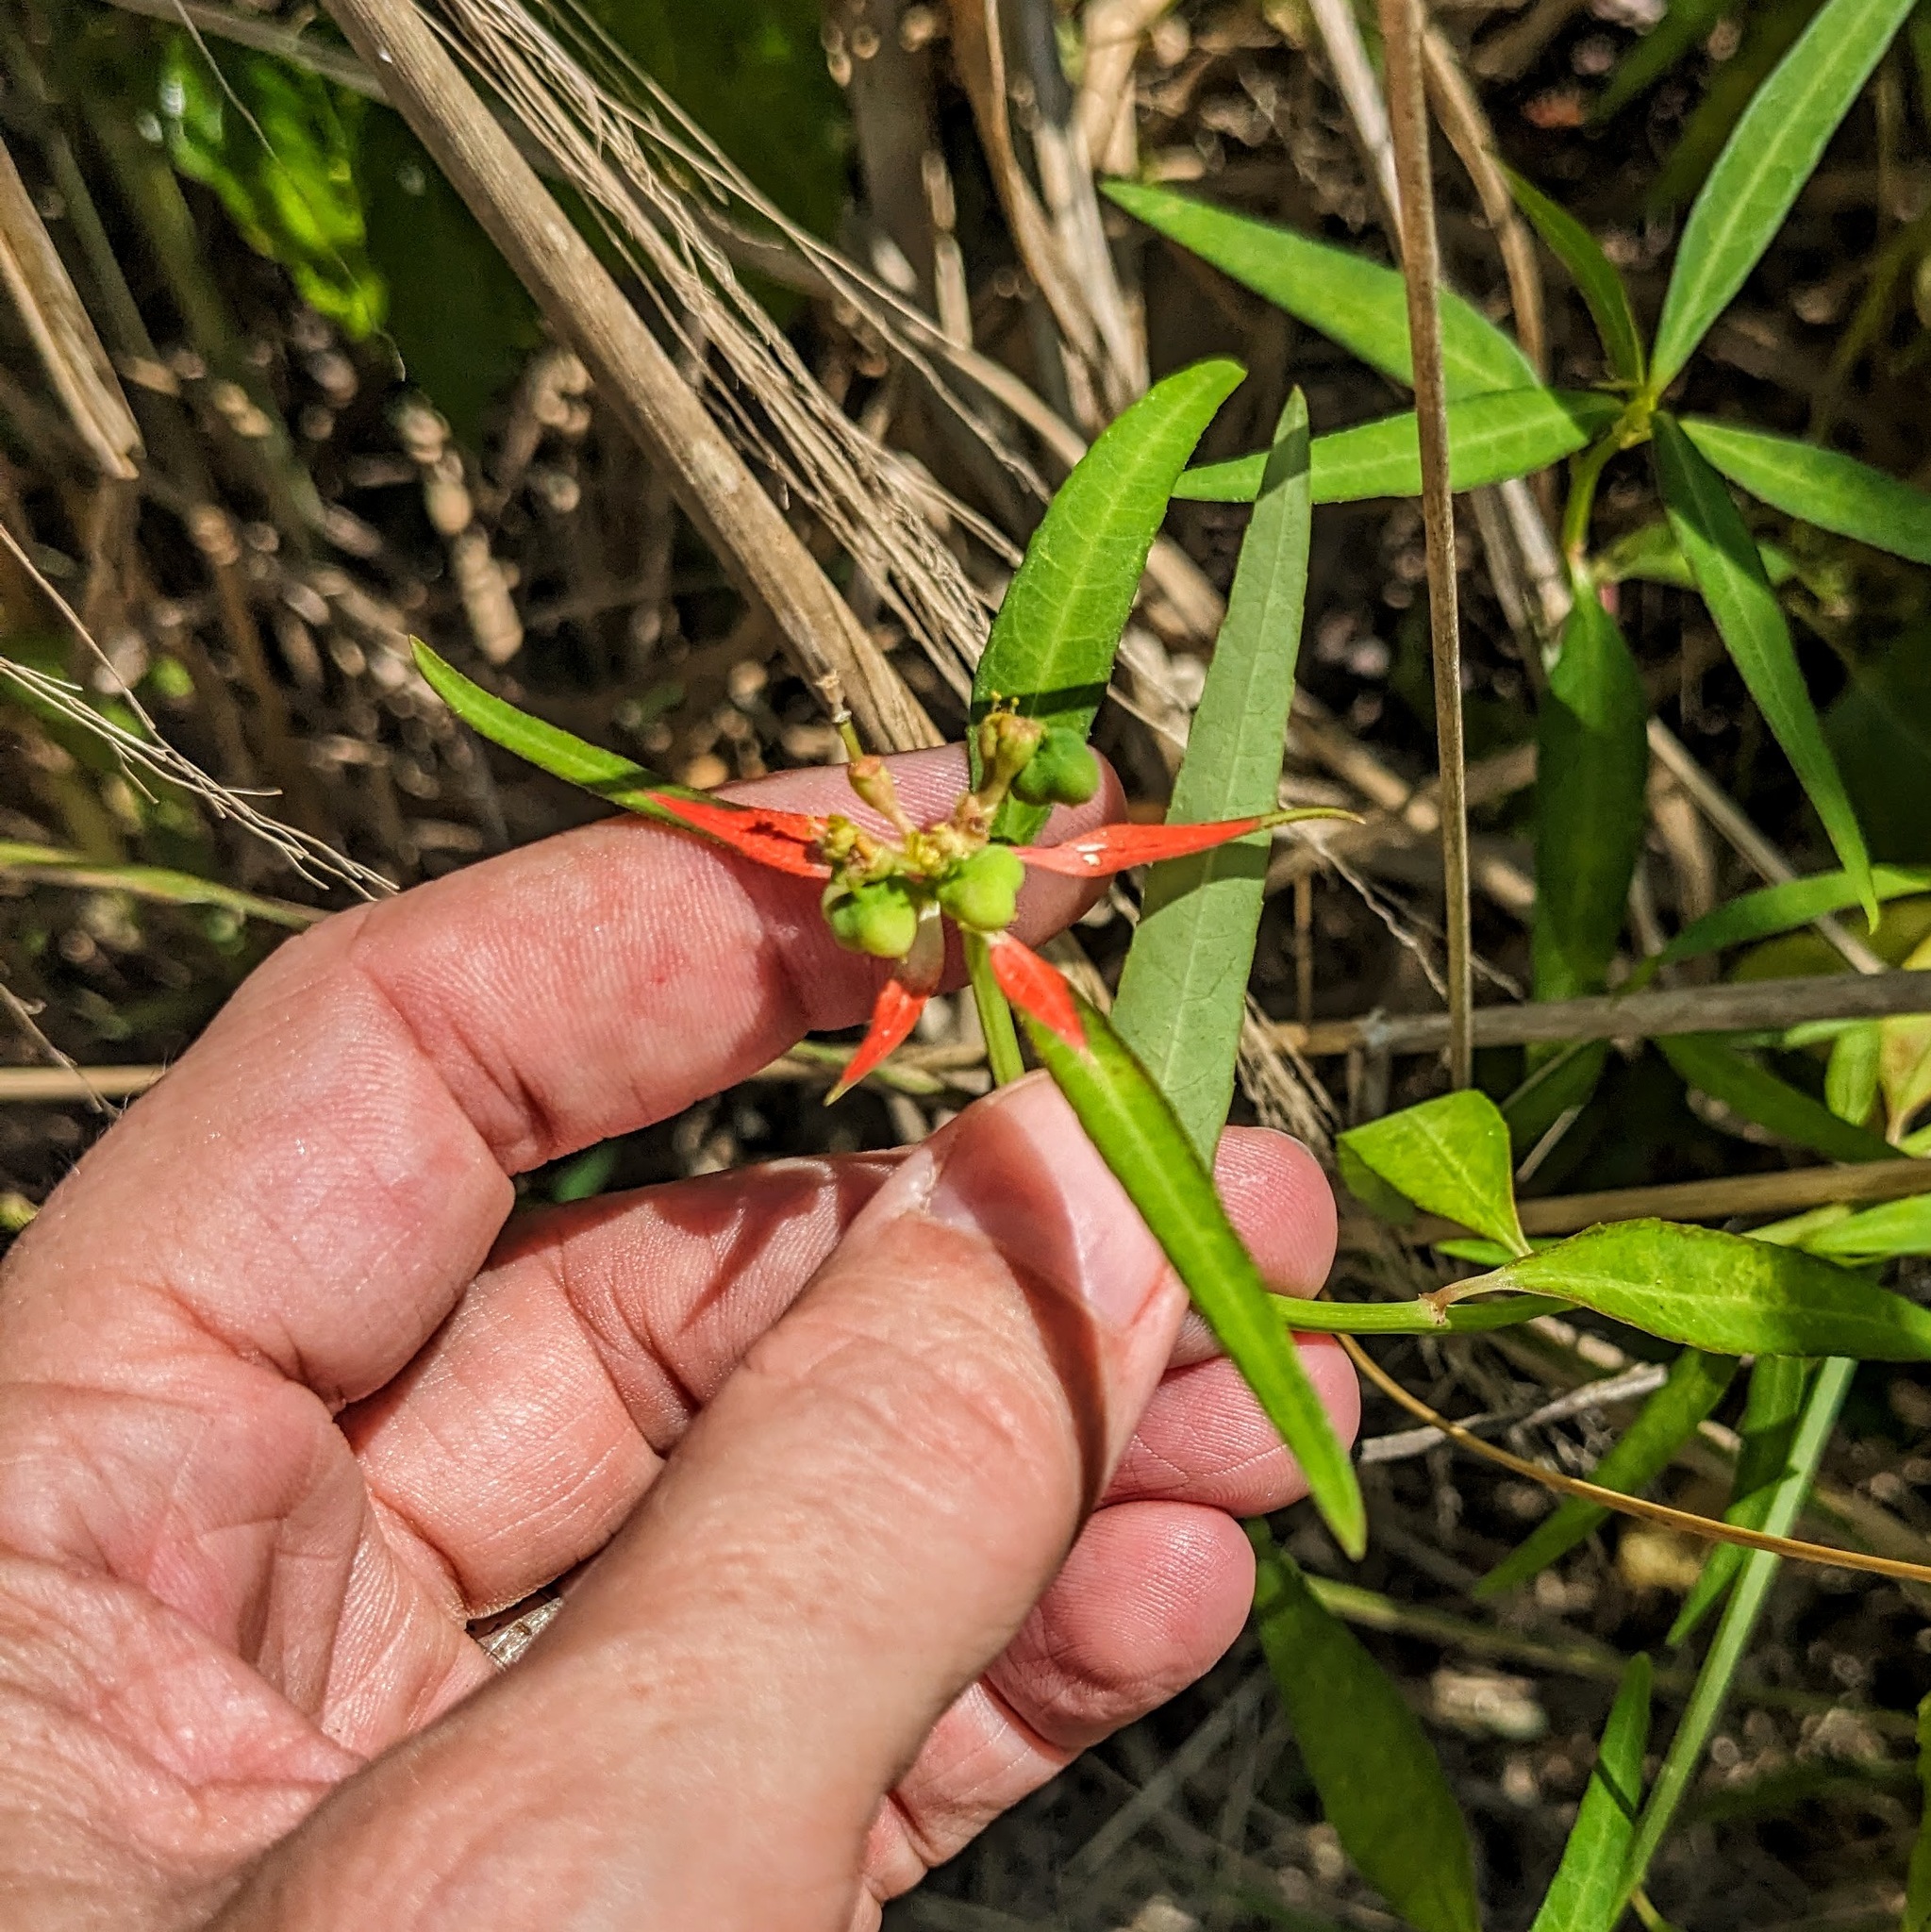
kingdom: Plantae
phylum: Tracheophyta
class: Magnoliopsida
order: Malpighiales
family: Euphorbiaceae
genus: Euphorbia
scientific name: Euphorbia heterophylla
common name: Mexican fireplant
